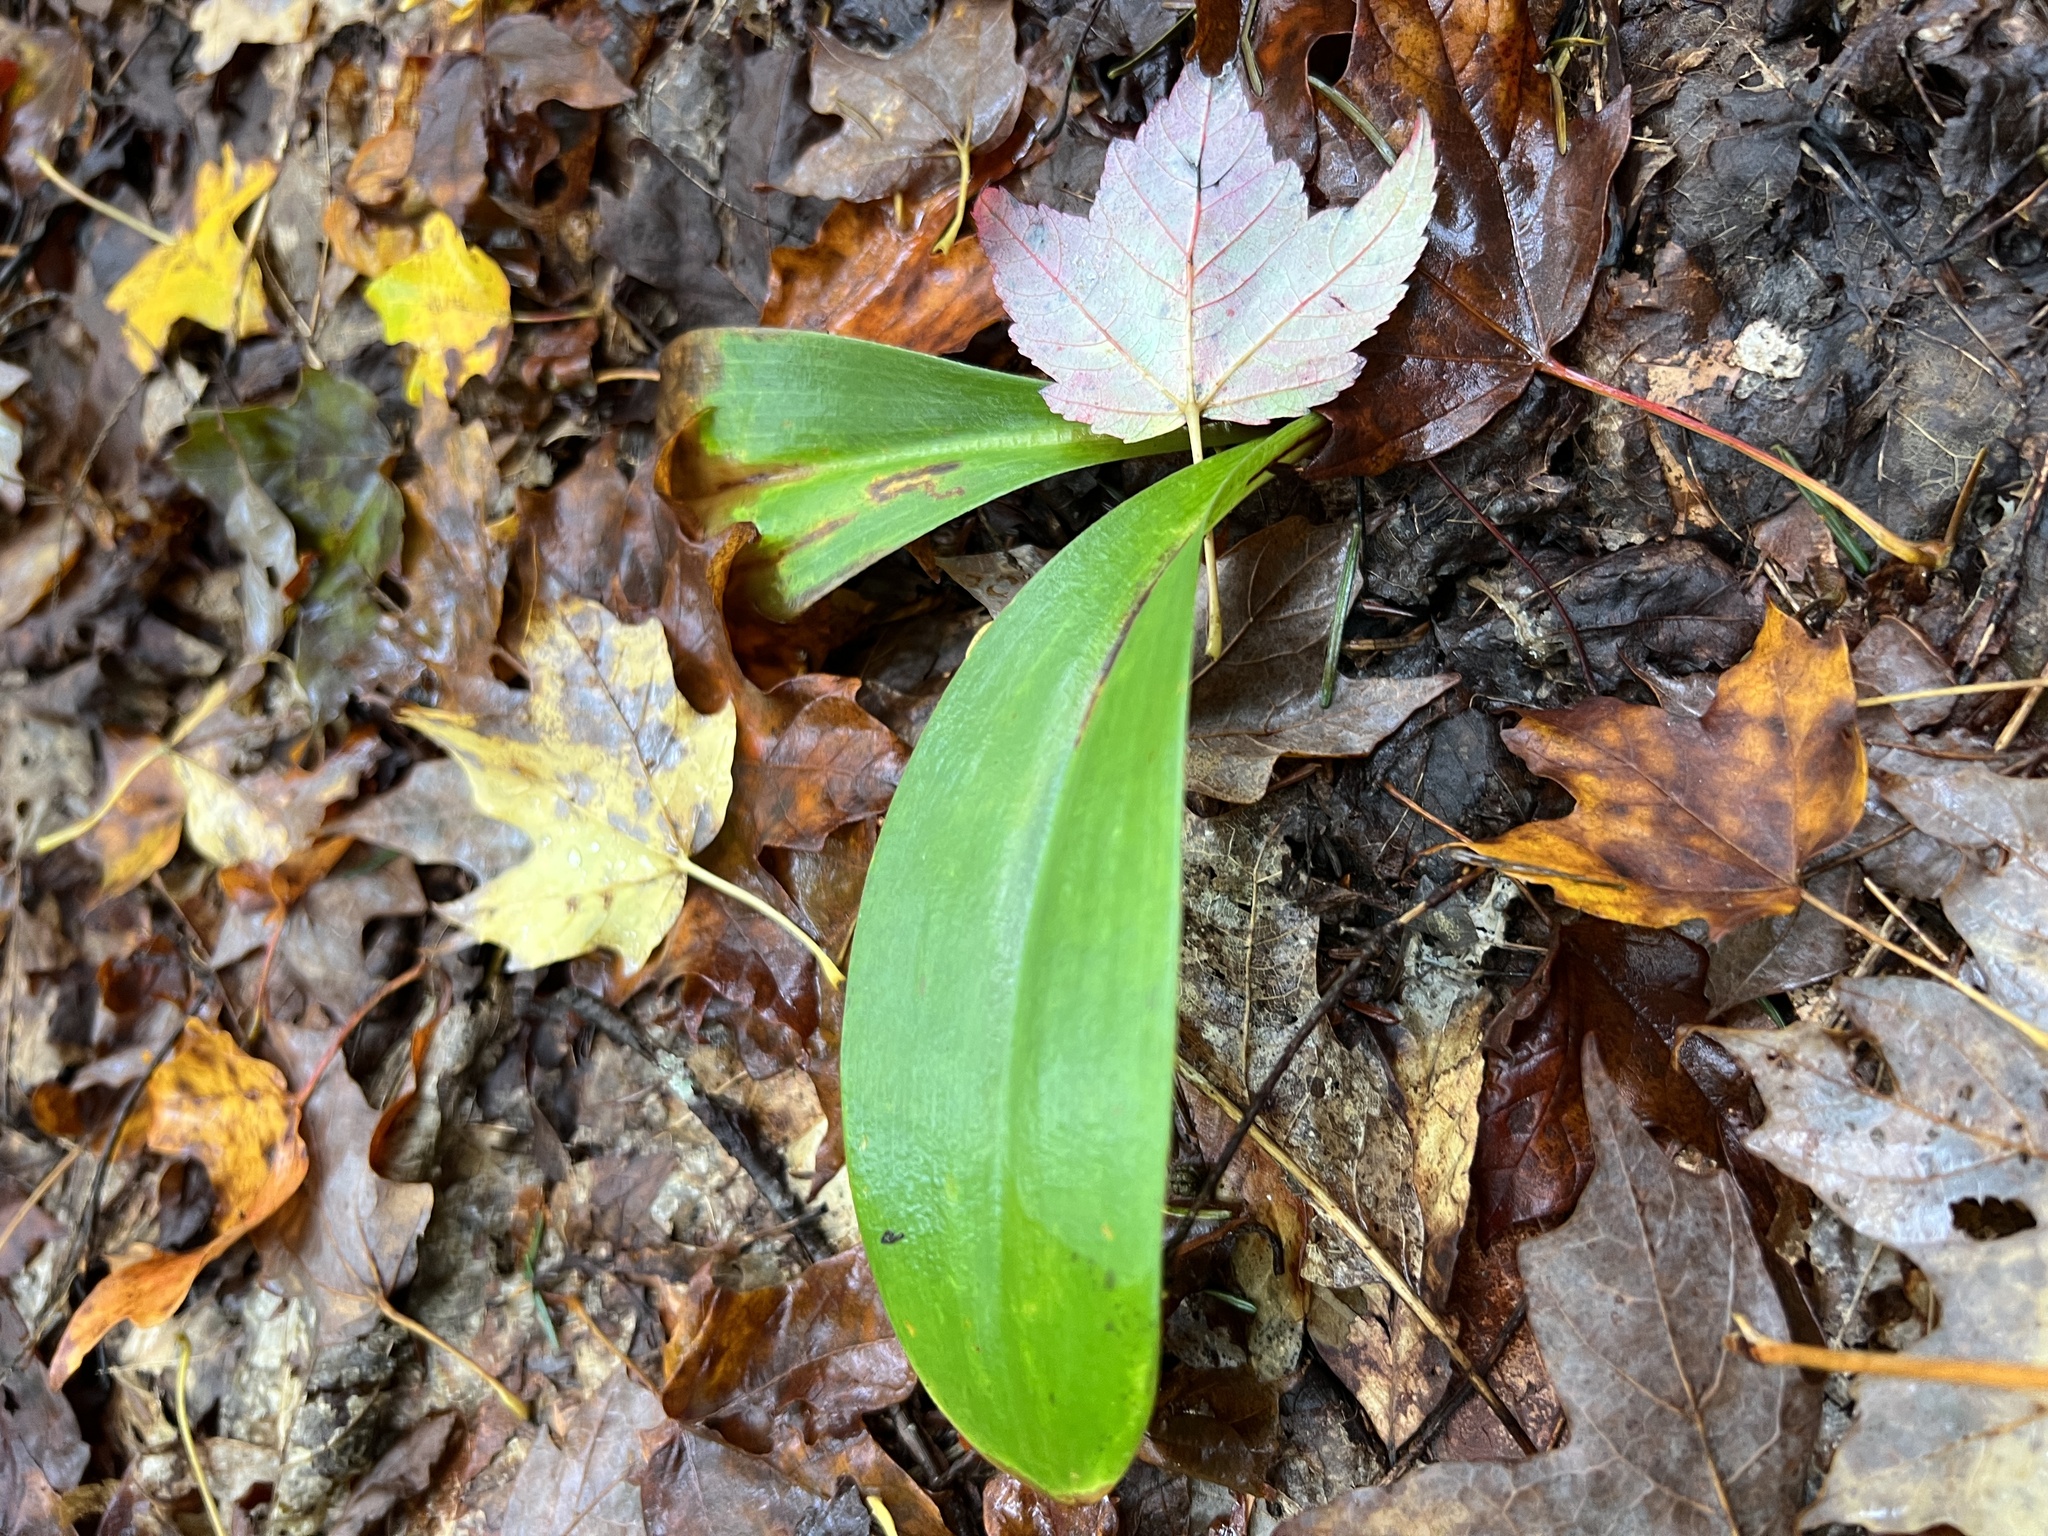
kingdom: Plantae
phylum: Tracheophyta
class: Liliopsida
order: Liliales
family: Liliaceae
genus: Clintonia
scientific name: Clintonia borealis
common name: Yellow clintonia
